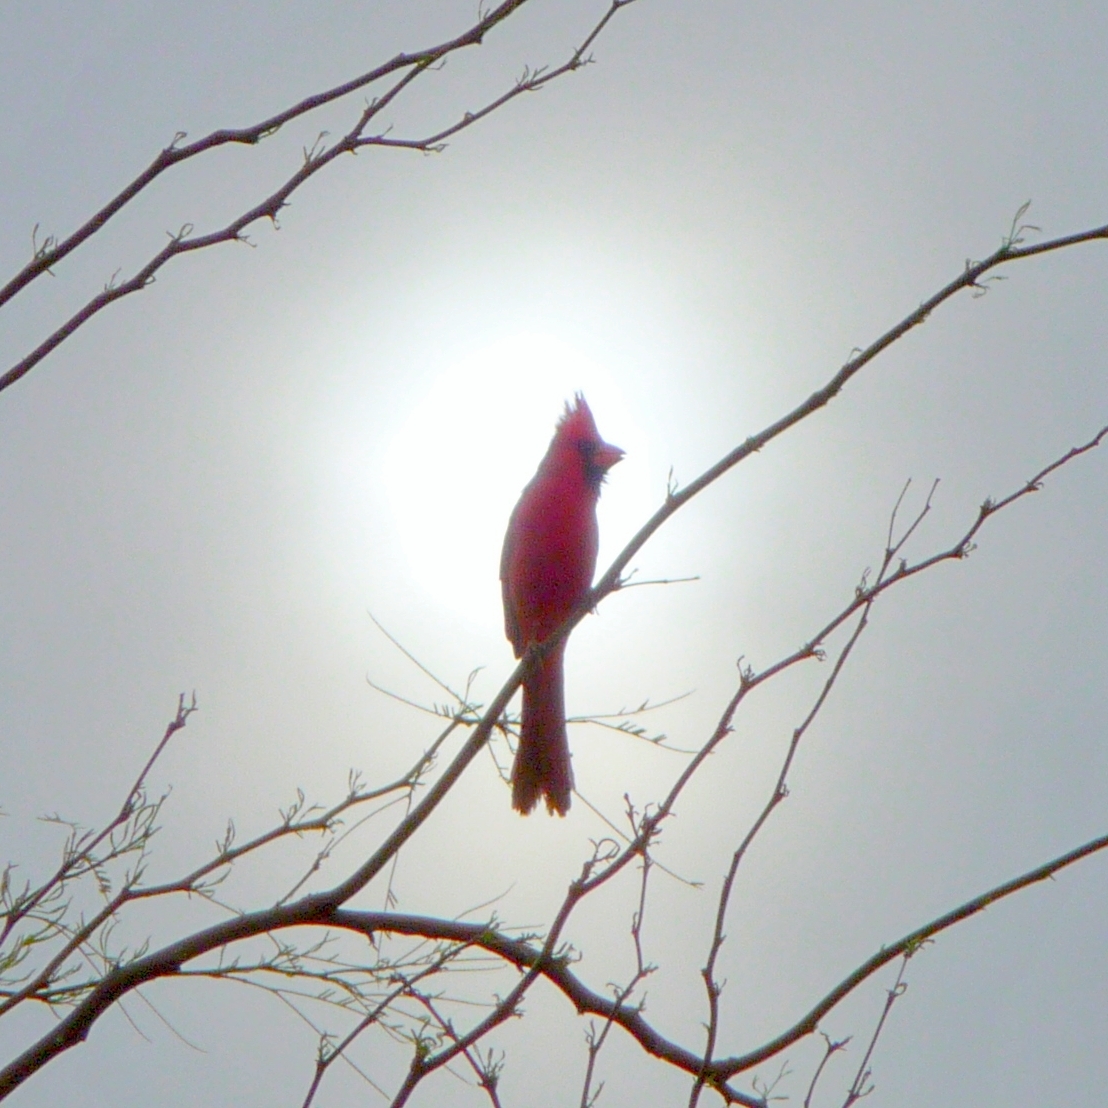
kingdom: Animalia
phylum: Chordata
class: Aves
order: Passeriformes
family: Cardinalidae
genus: Cardinalis
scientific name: Cardinalis cardinalis
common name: Northern cardinal
